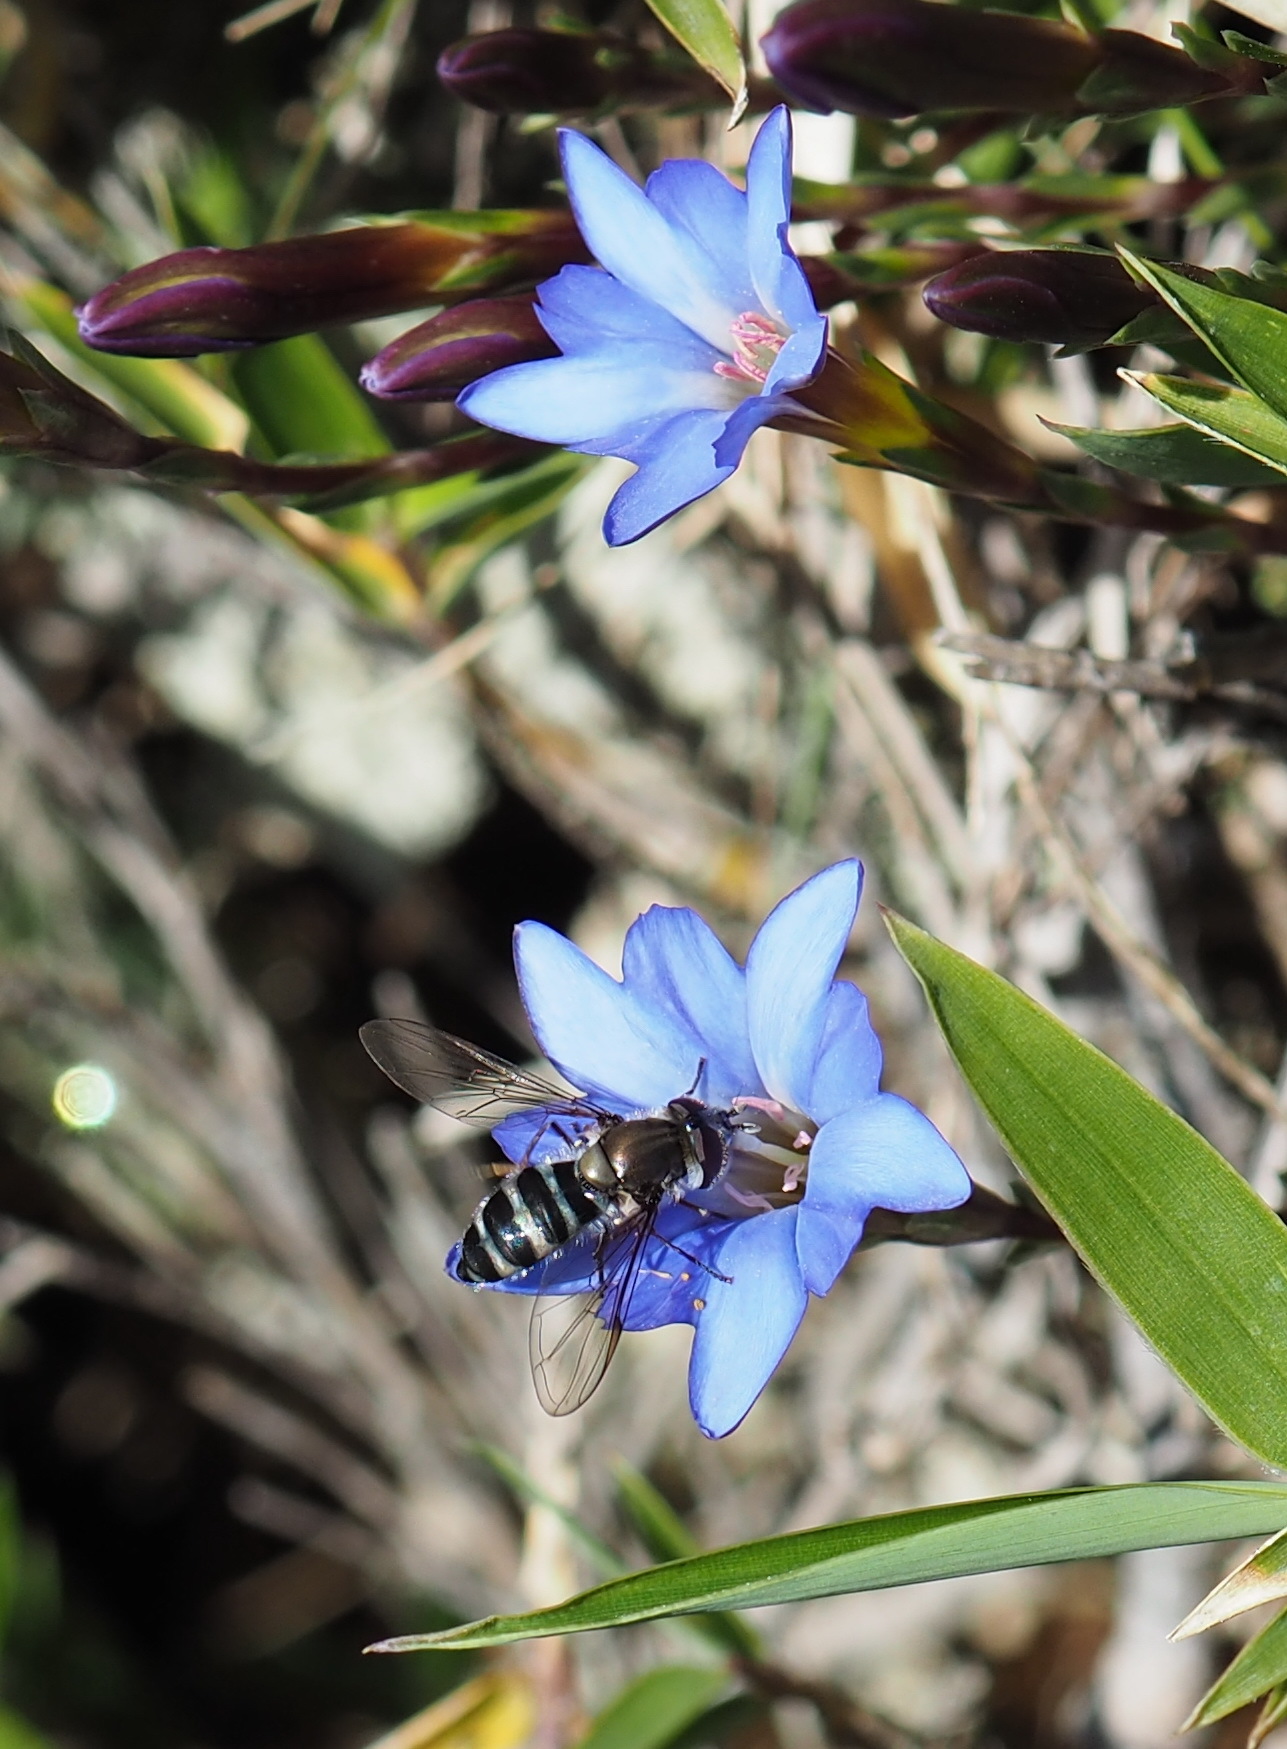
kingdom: Plantae
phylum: Tracheophyta
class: Magnoliopsida
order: Gentianales
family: Gentianaceae
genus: Gentiana
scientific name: Gentiana arisanensis
